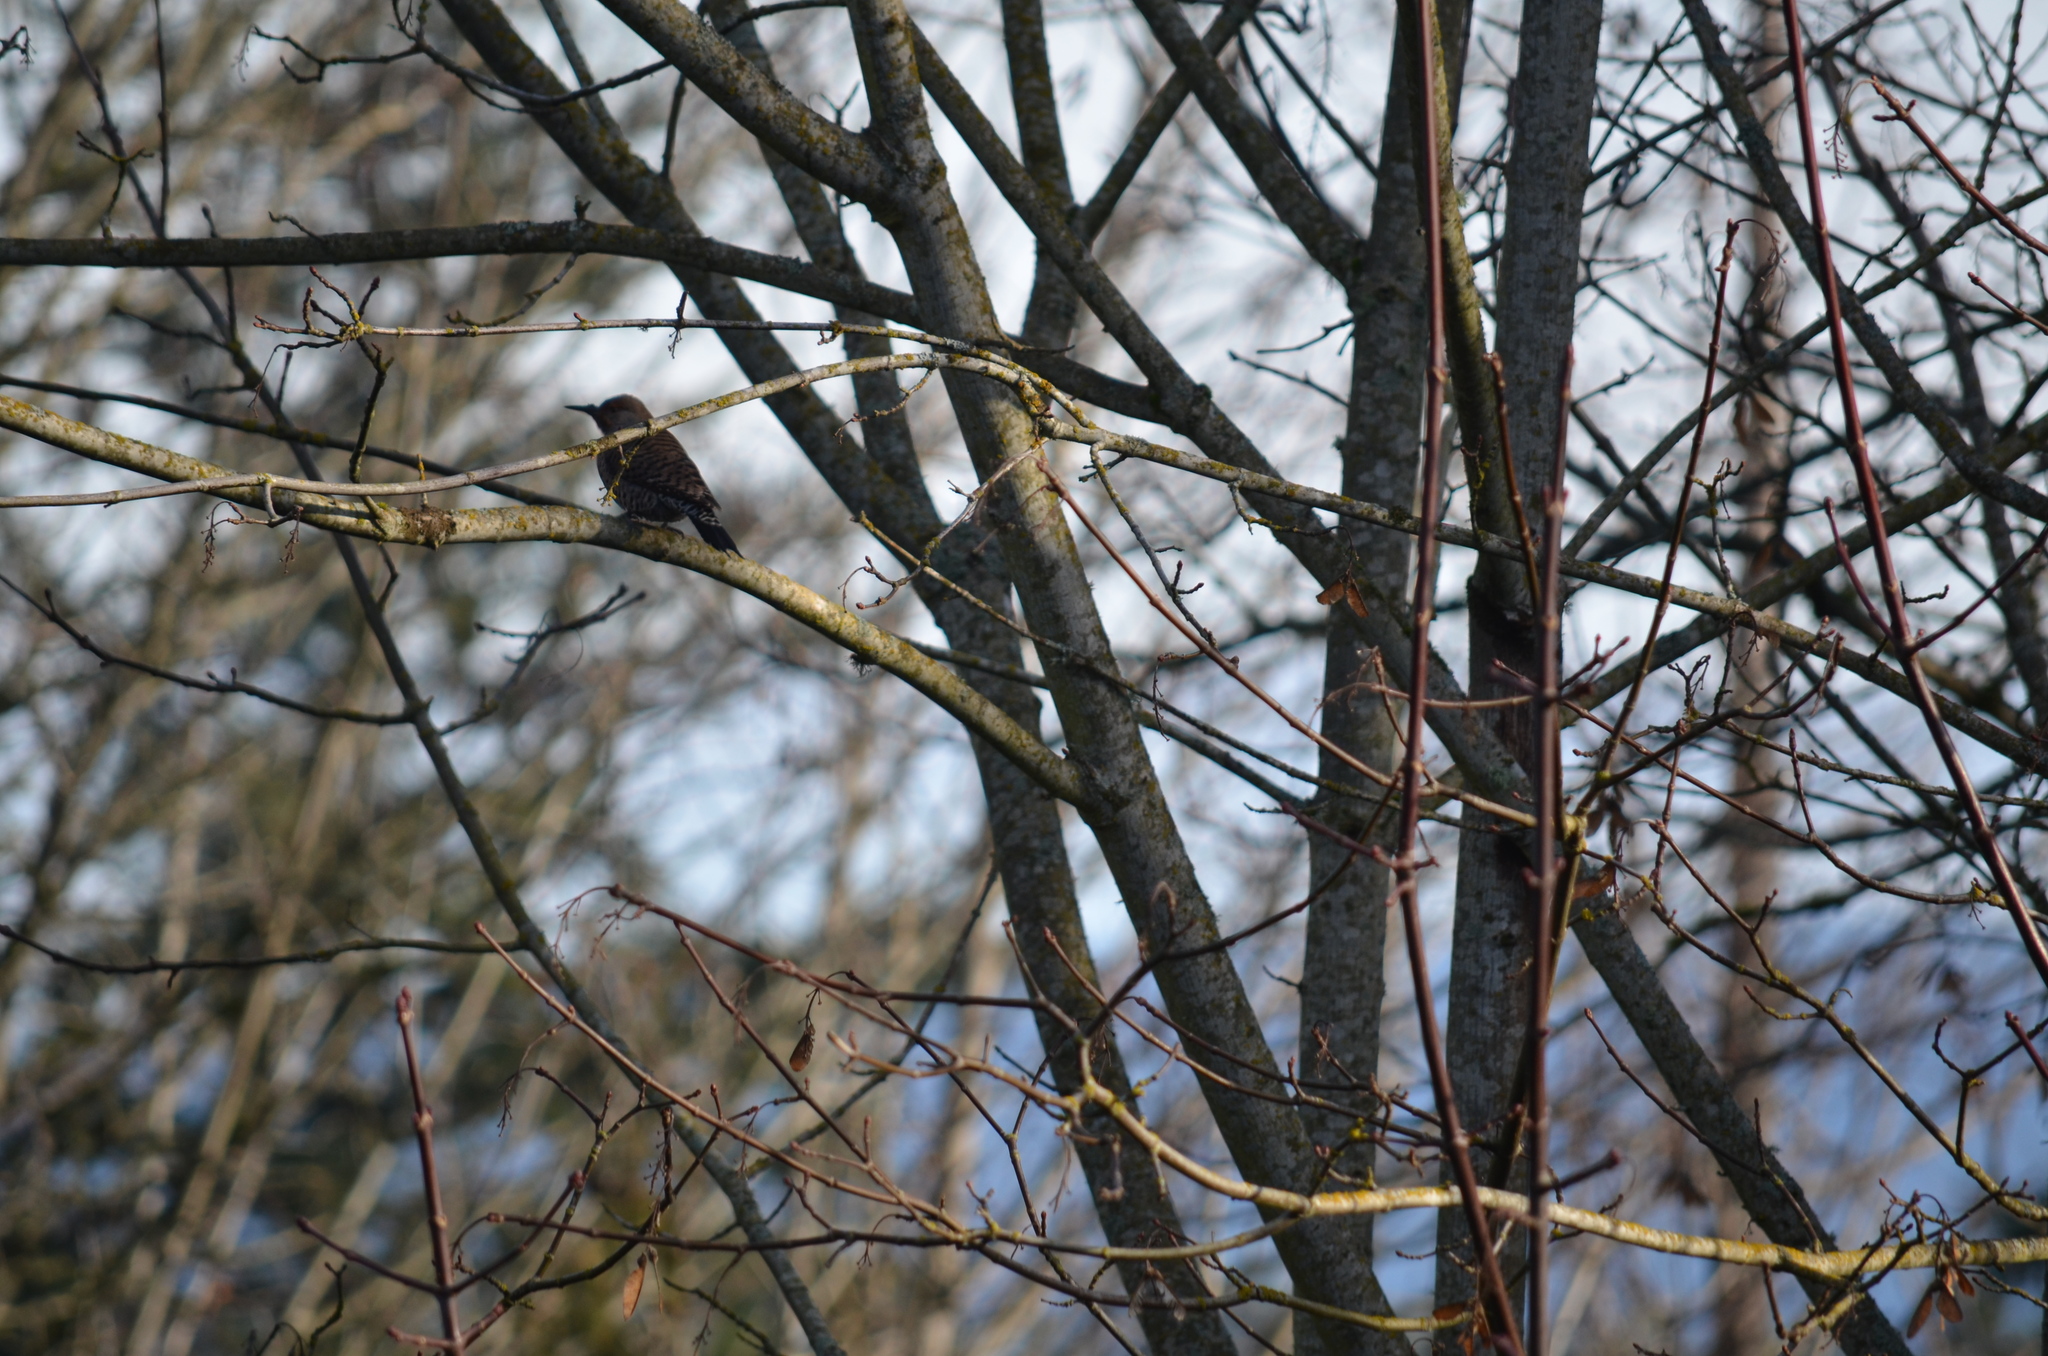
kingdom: Animalia
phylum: Chordata
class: Aves
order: Piciformes
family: Picidae
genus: Colaptes
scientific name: Colaptes auratus
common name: Northern flicker
